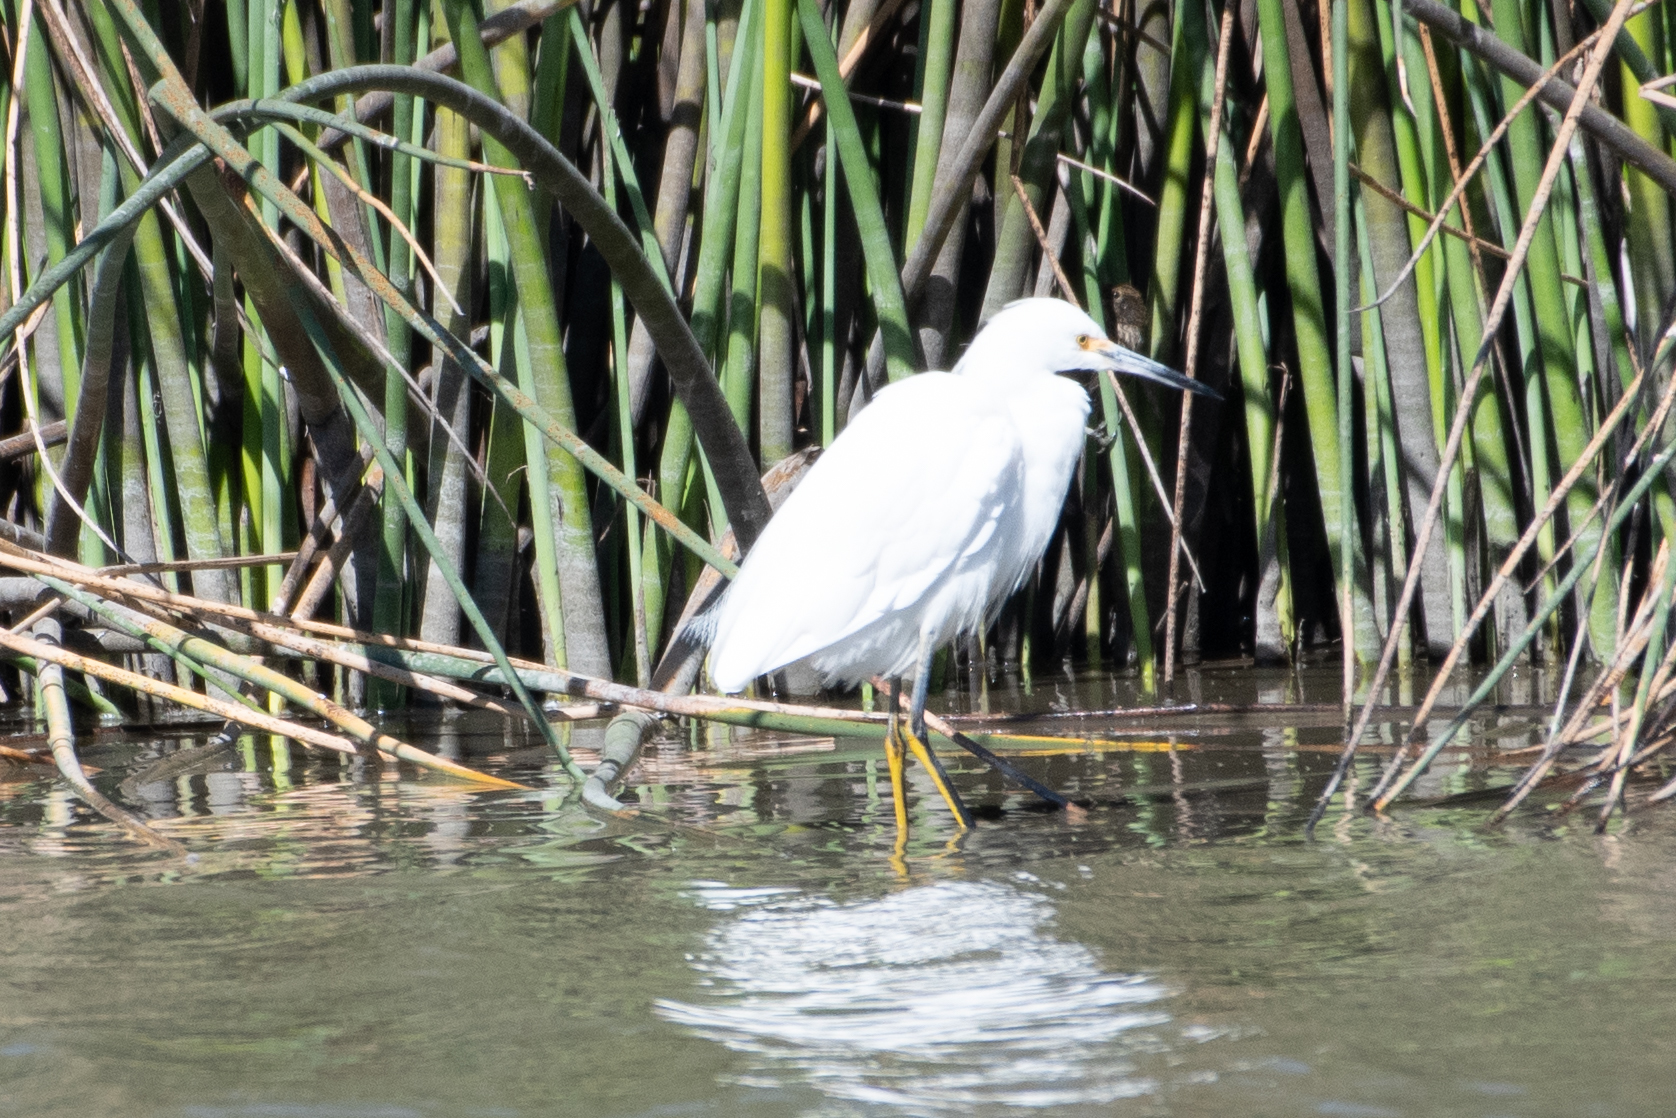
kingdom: Animalia
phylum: Chordata
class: Aves
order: Pelecaniformes
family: Ardeidae
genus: Egretta
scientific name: Egretta thula
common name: Snowy egret
